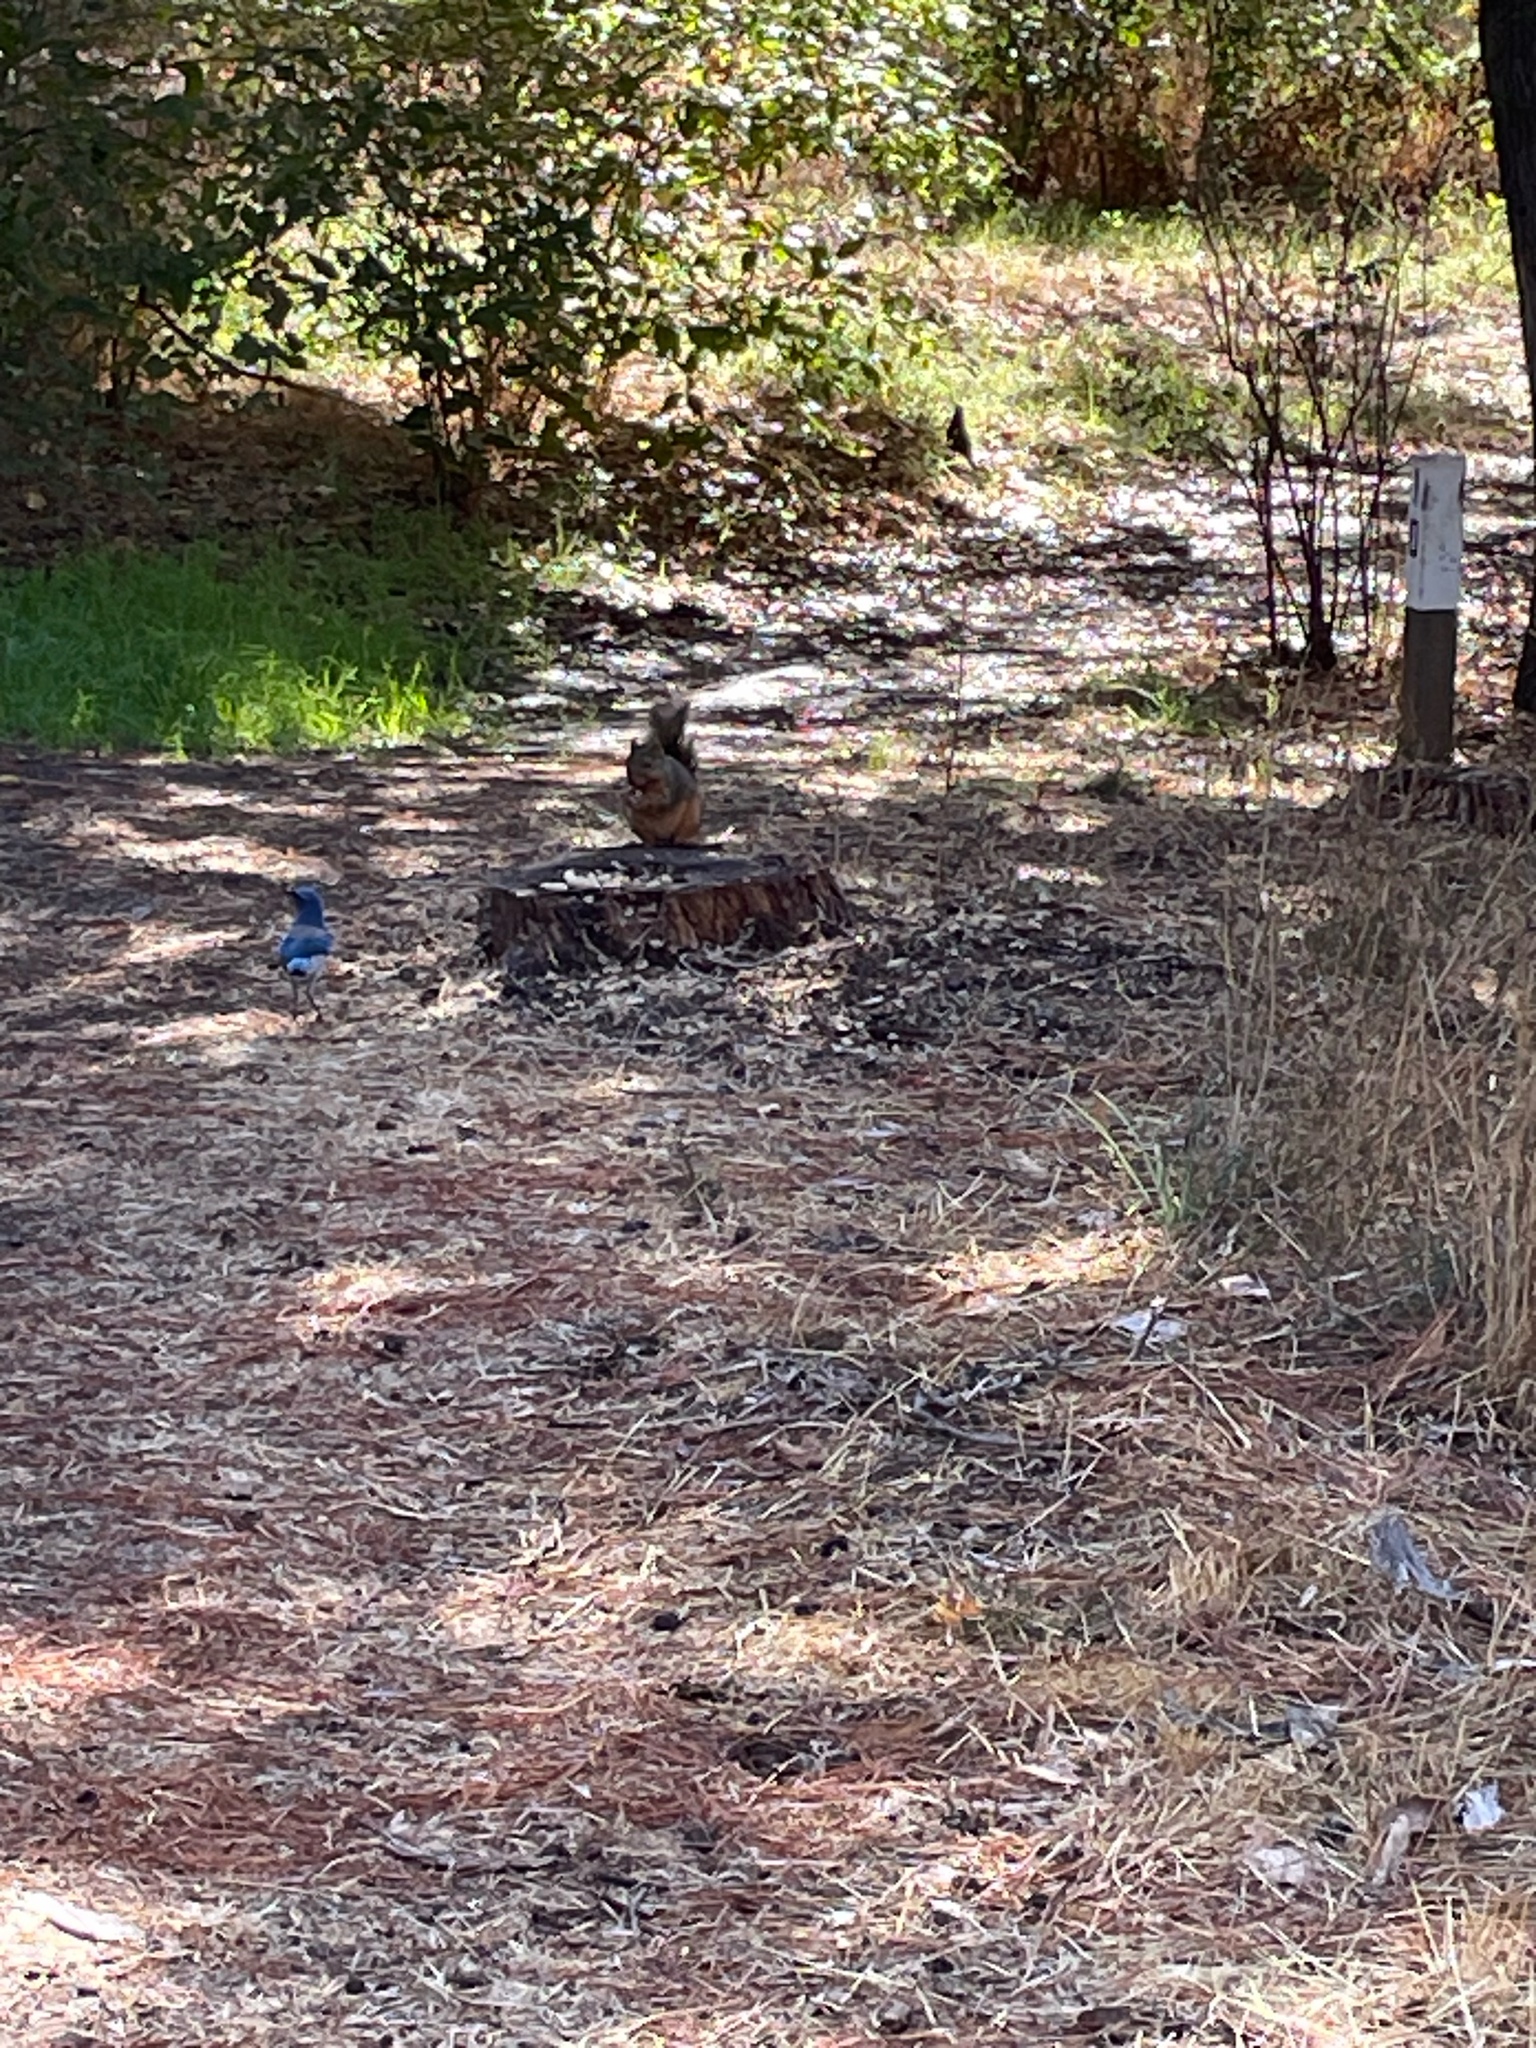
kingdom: Animalia
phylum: Chordata
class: Aves
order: Passeriformes
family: Corvidae
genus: Aphelocoma
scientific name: Aphelocoma californica
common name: California scrub-jay
